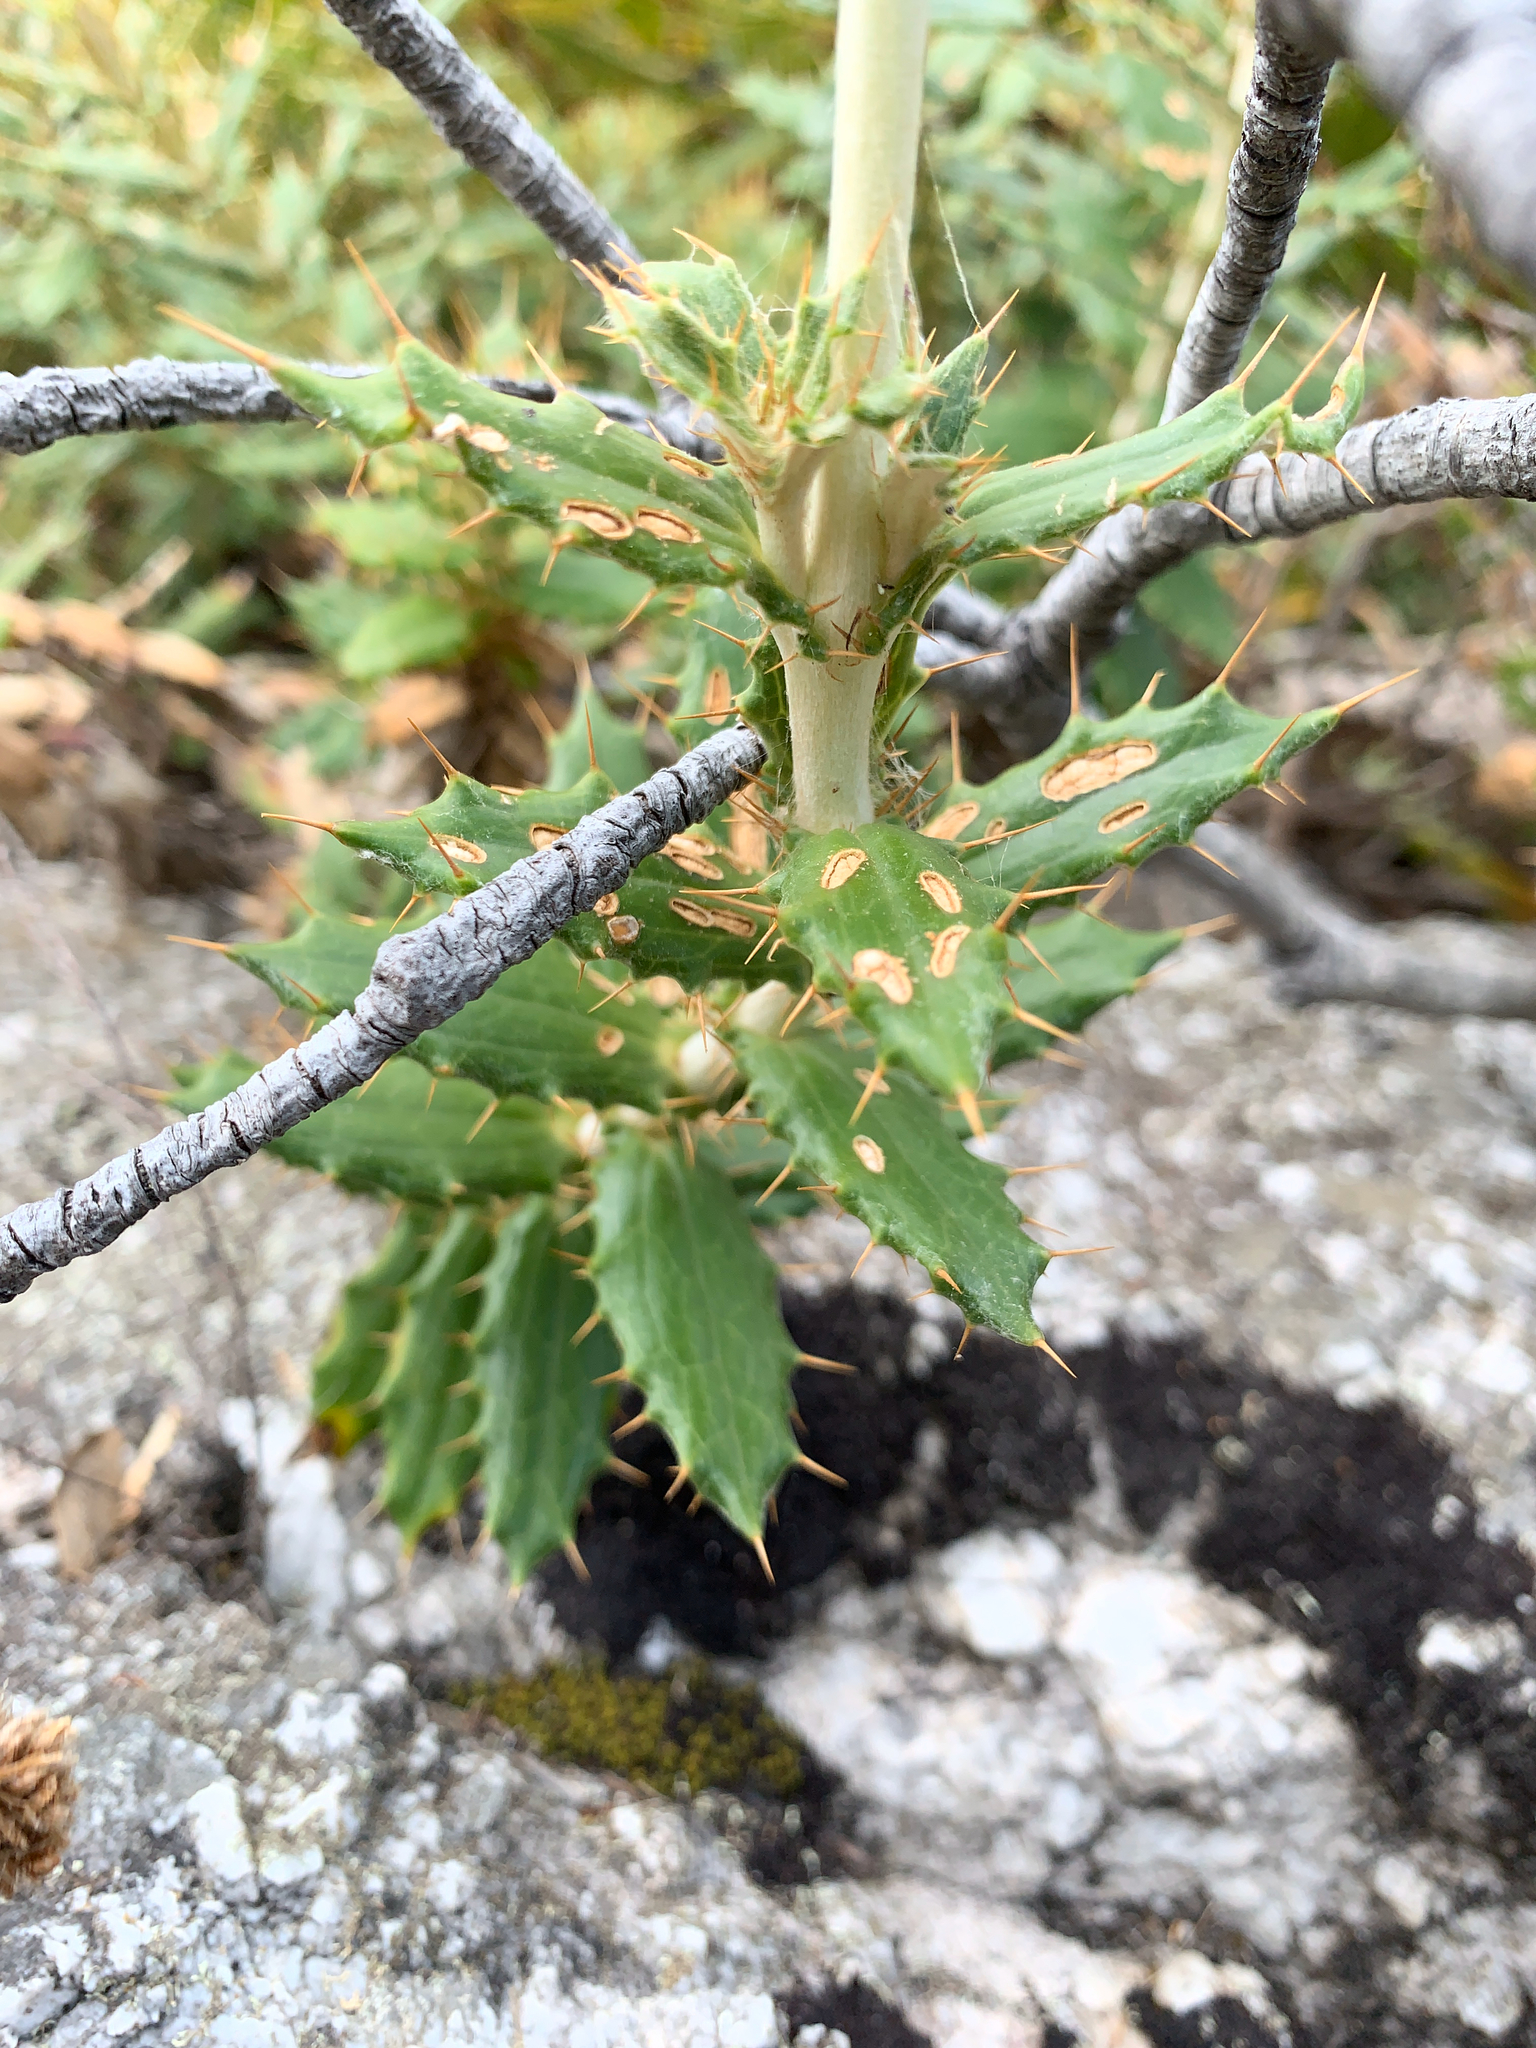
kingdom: Plantae
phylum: Tracheophyta
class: Magnoliopsida
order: Asterales
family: Asteraceae
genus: Berkheya
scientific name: Berkheya barbata
